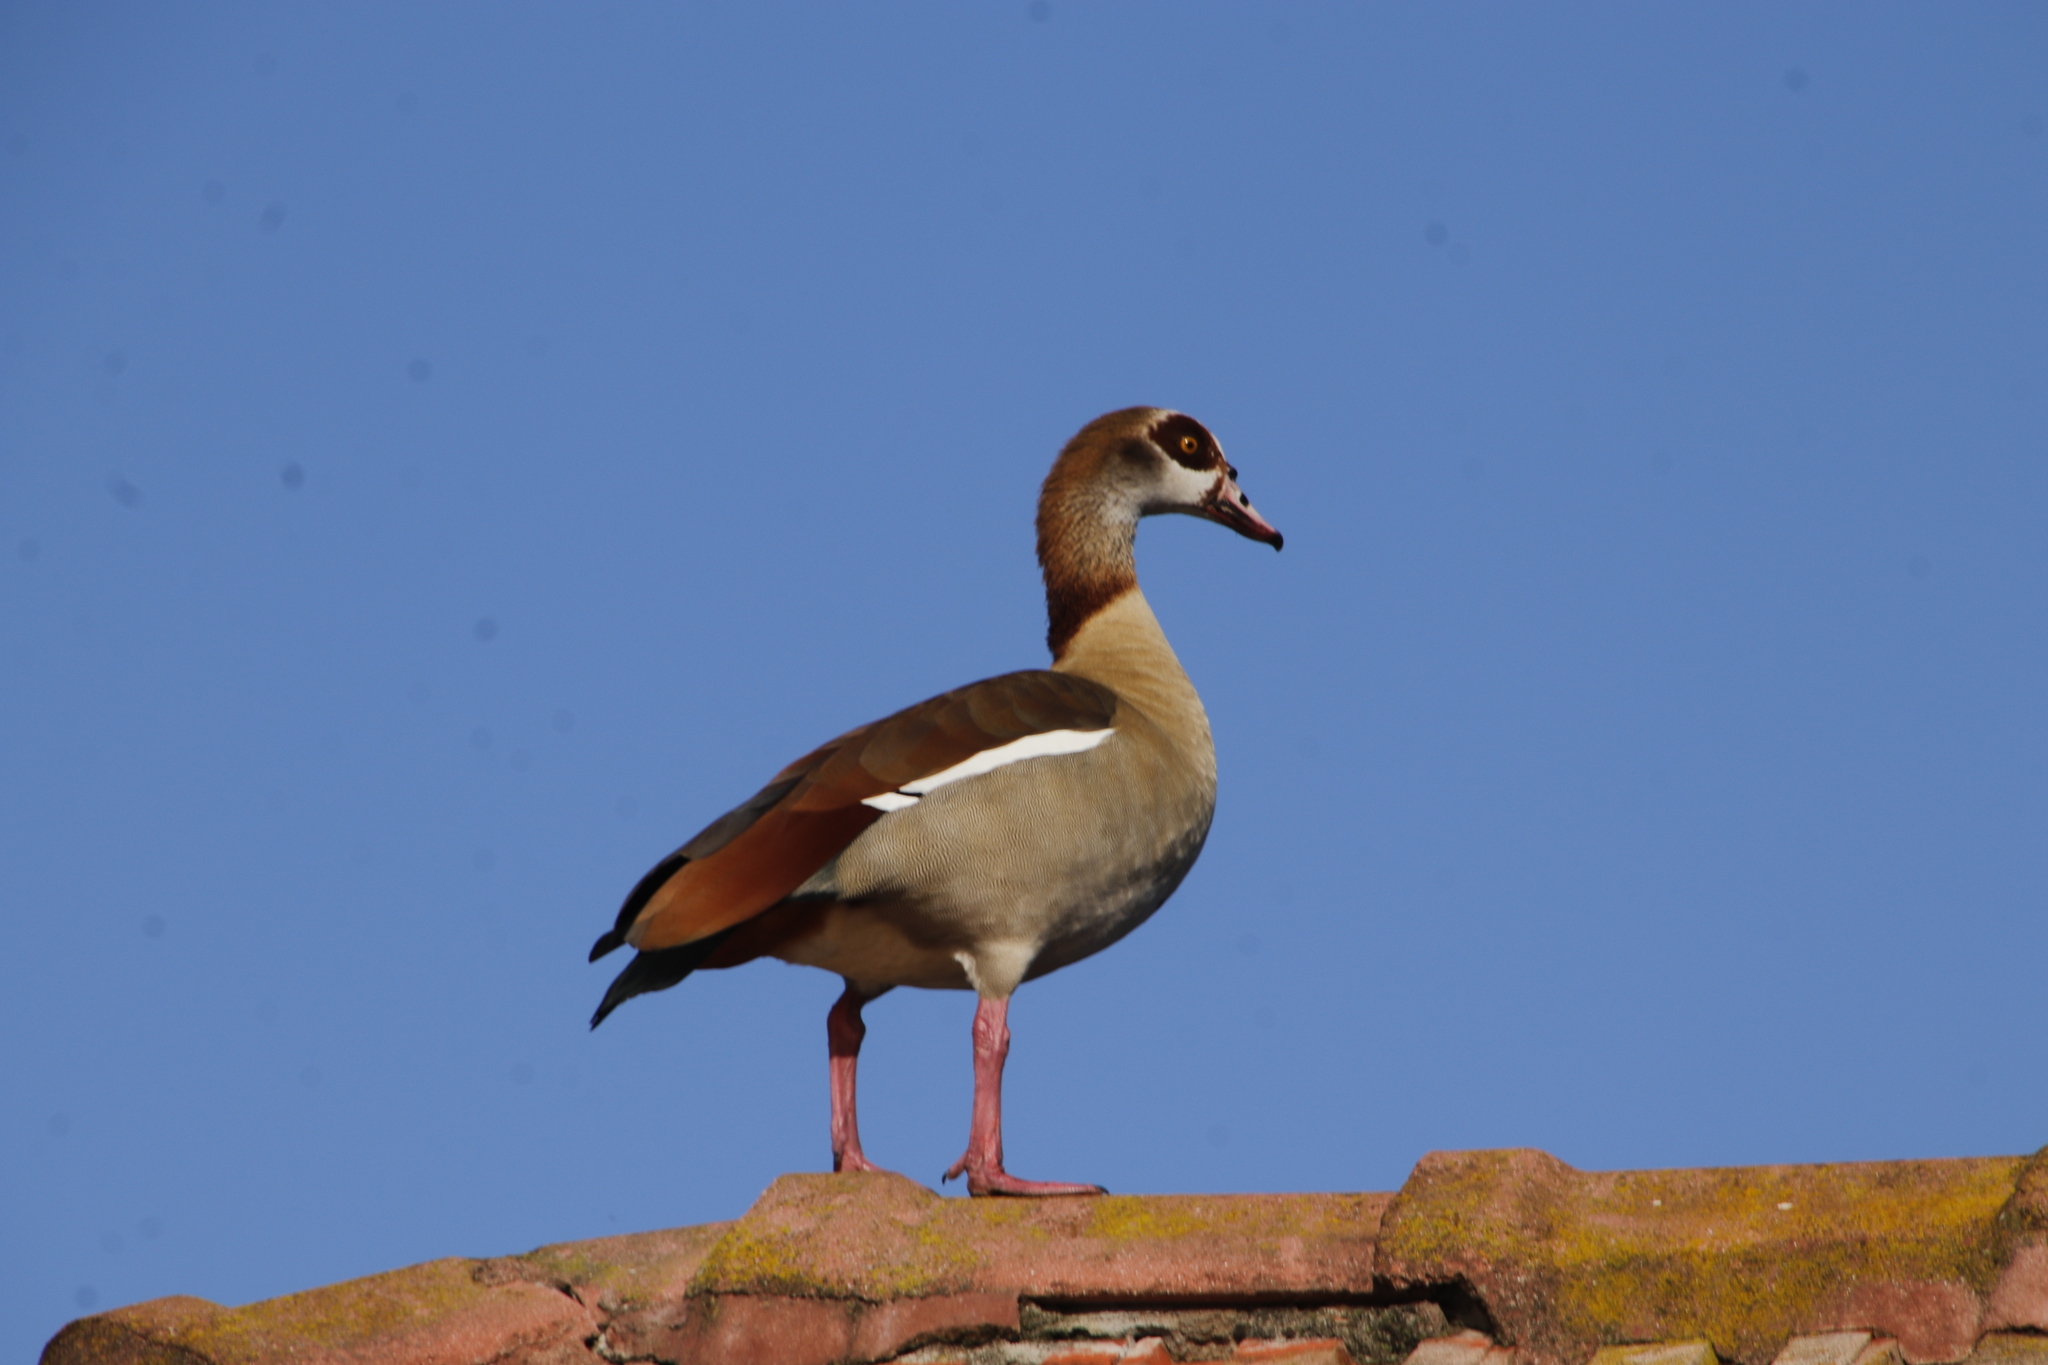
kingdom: Animalia
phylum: Chordata
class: Aves
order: Anseriformes
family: Anatidae
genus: Alopochen
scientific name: Alopochen aegyptiaca
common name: Egyptian goose
